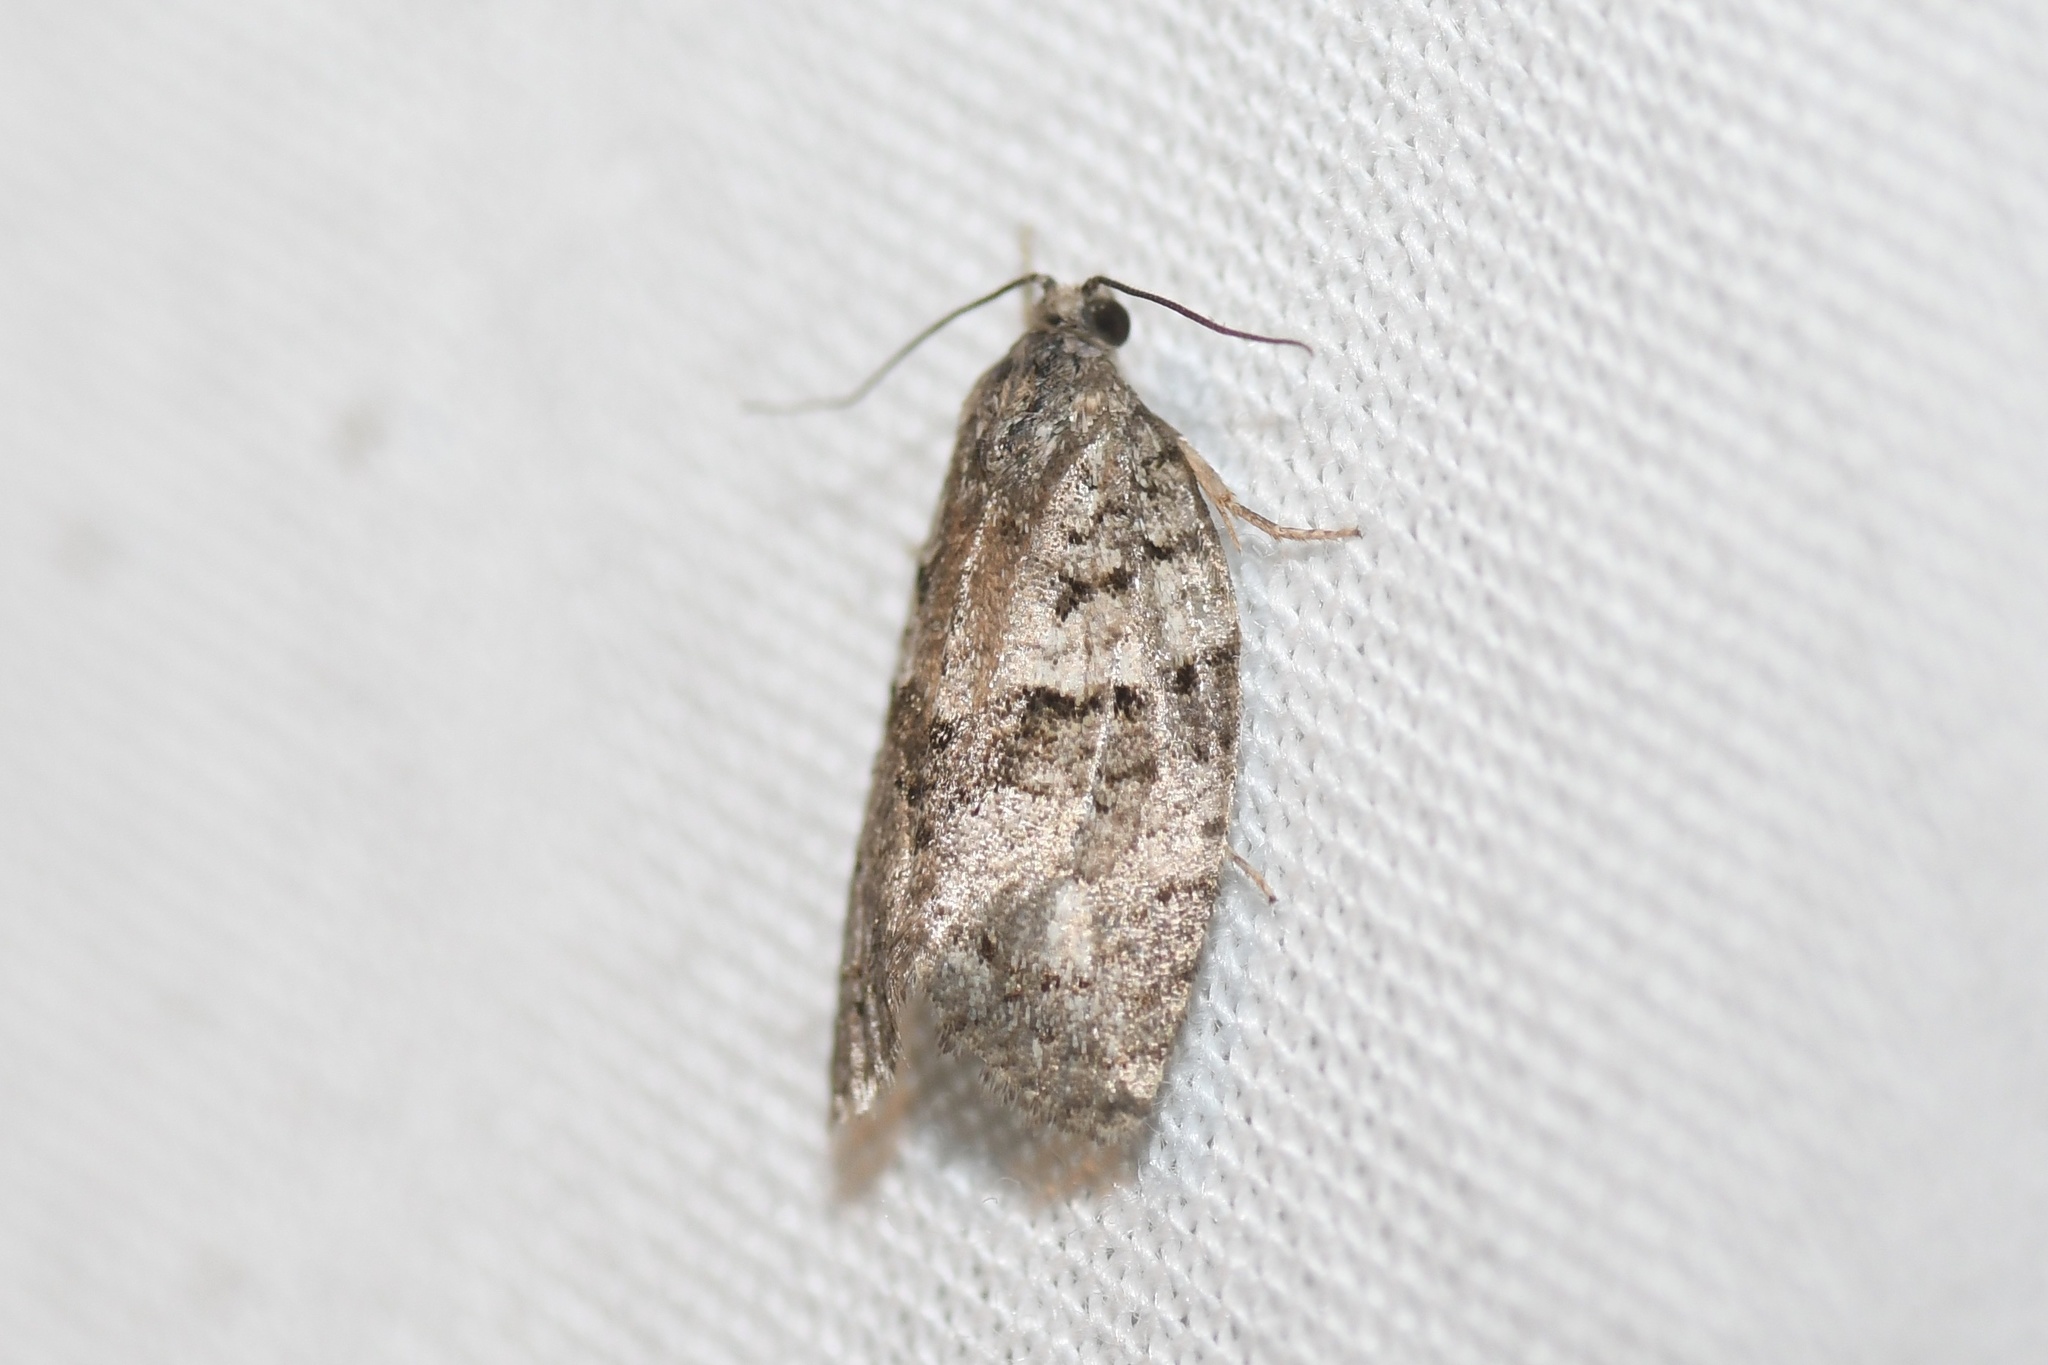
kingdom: Animalia
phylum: Arthropoda
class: Insecta
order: Lepidoptera
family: Tortricidae
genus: Syndemis
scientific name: Syndemis afflictana
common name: Gray leafroller moth
